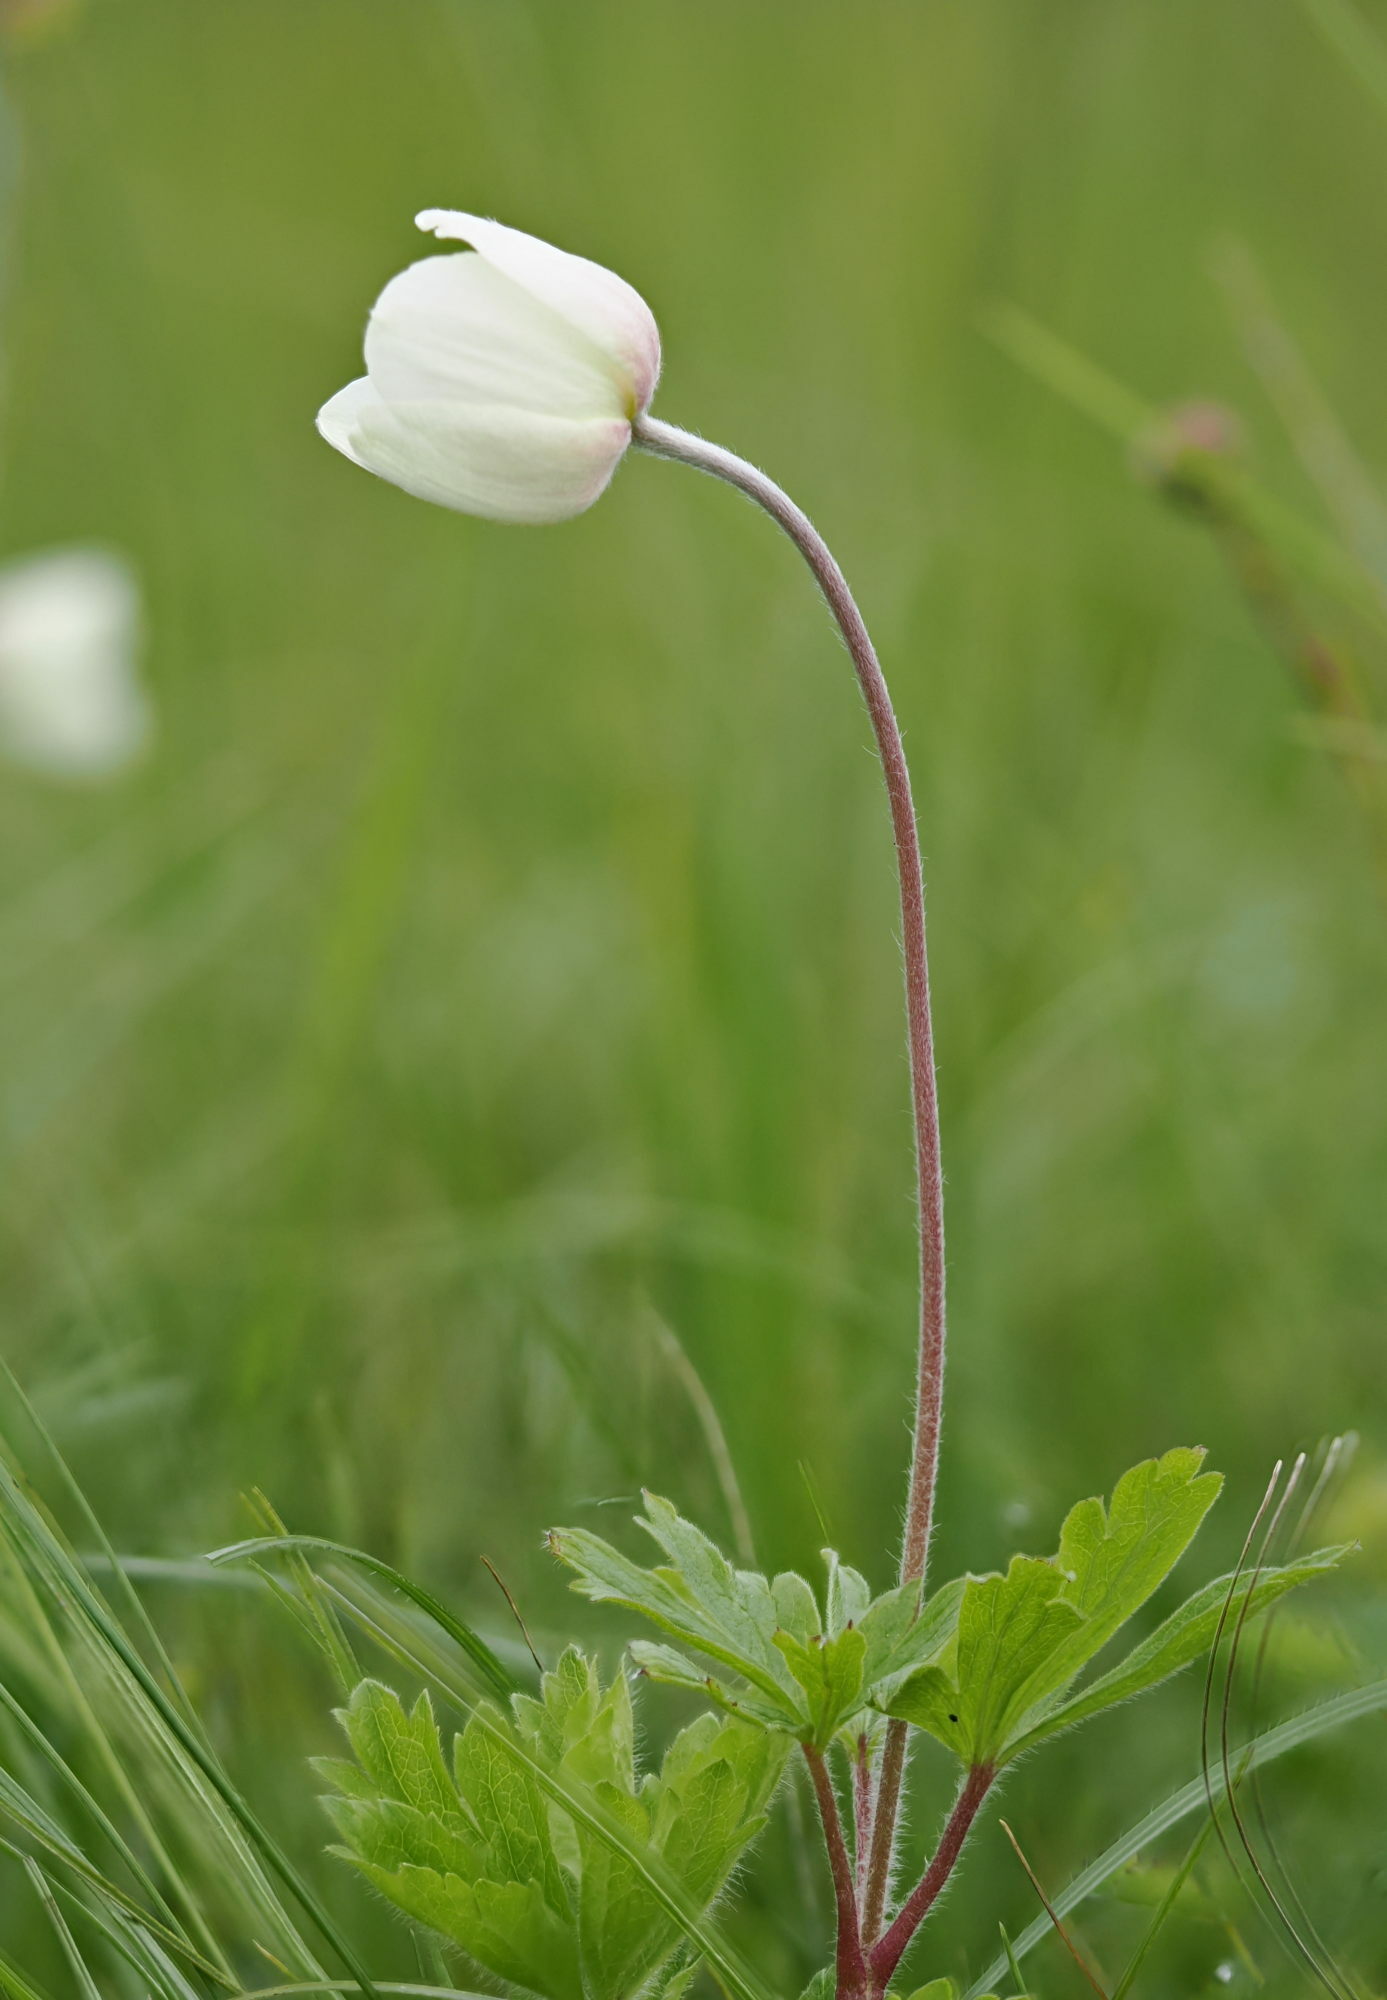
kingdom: Plantae
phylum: Tracheophyta
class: Magnoliopsida
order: Ranunculales
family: Ranunculaceae
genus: Anemone
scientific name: Anemone sylvestris
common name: Snowdrop anemone
